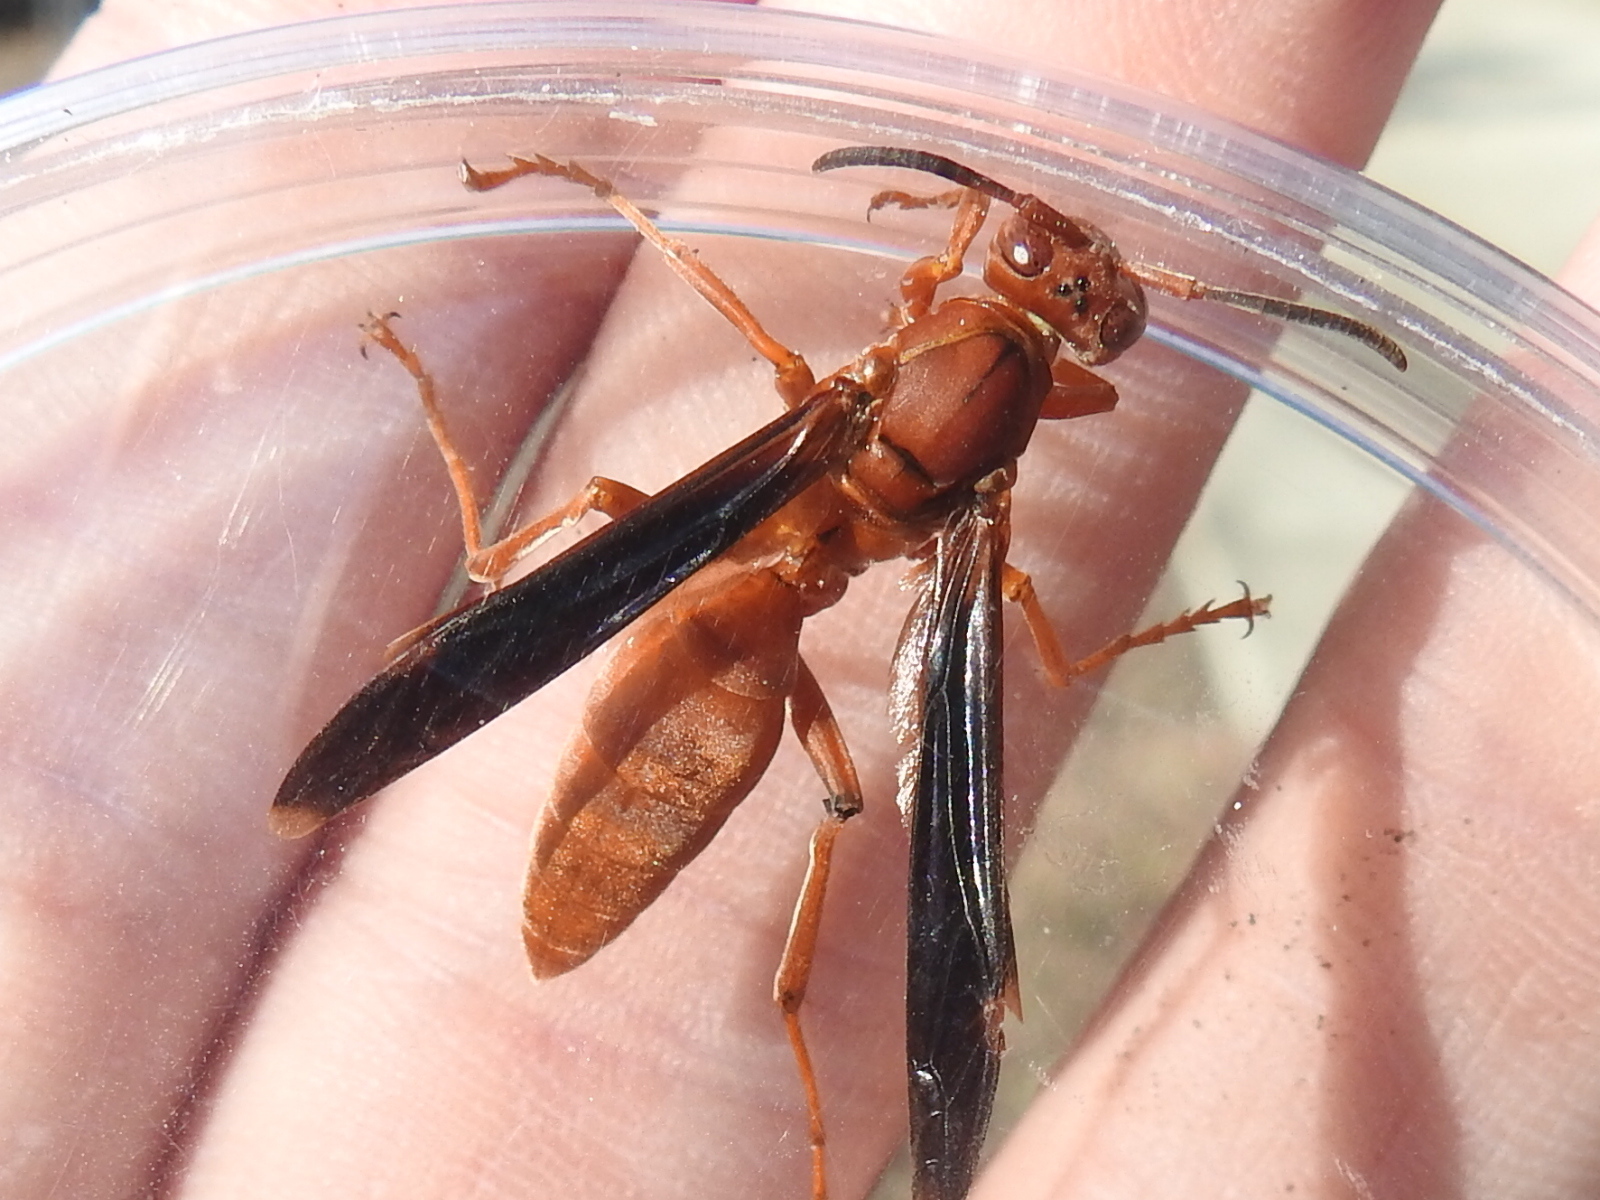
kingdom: Animalia
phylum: Arthropoda
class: Insecta
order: Hymenoptera
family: Vespidae
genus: Fuscopolistes
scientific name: Fuscopolistes
